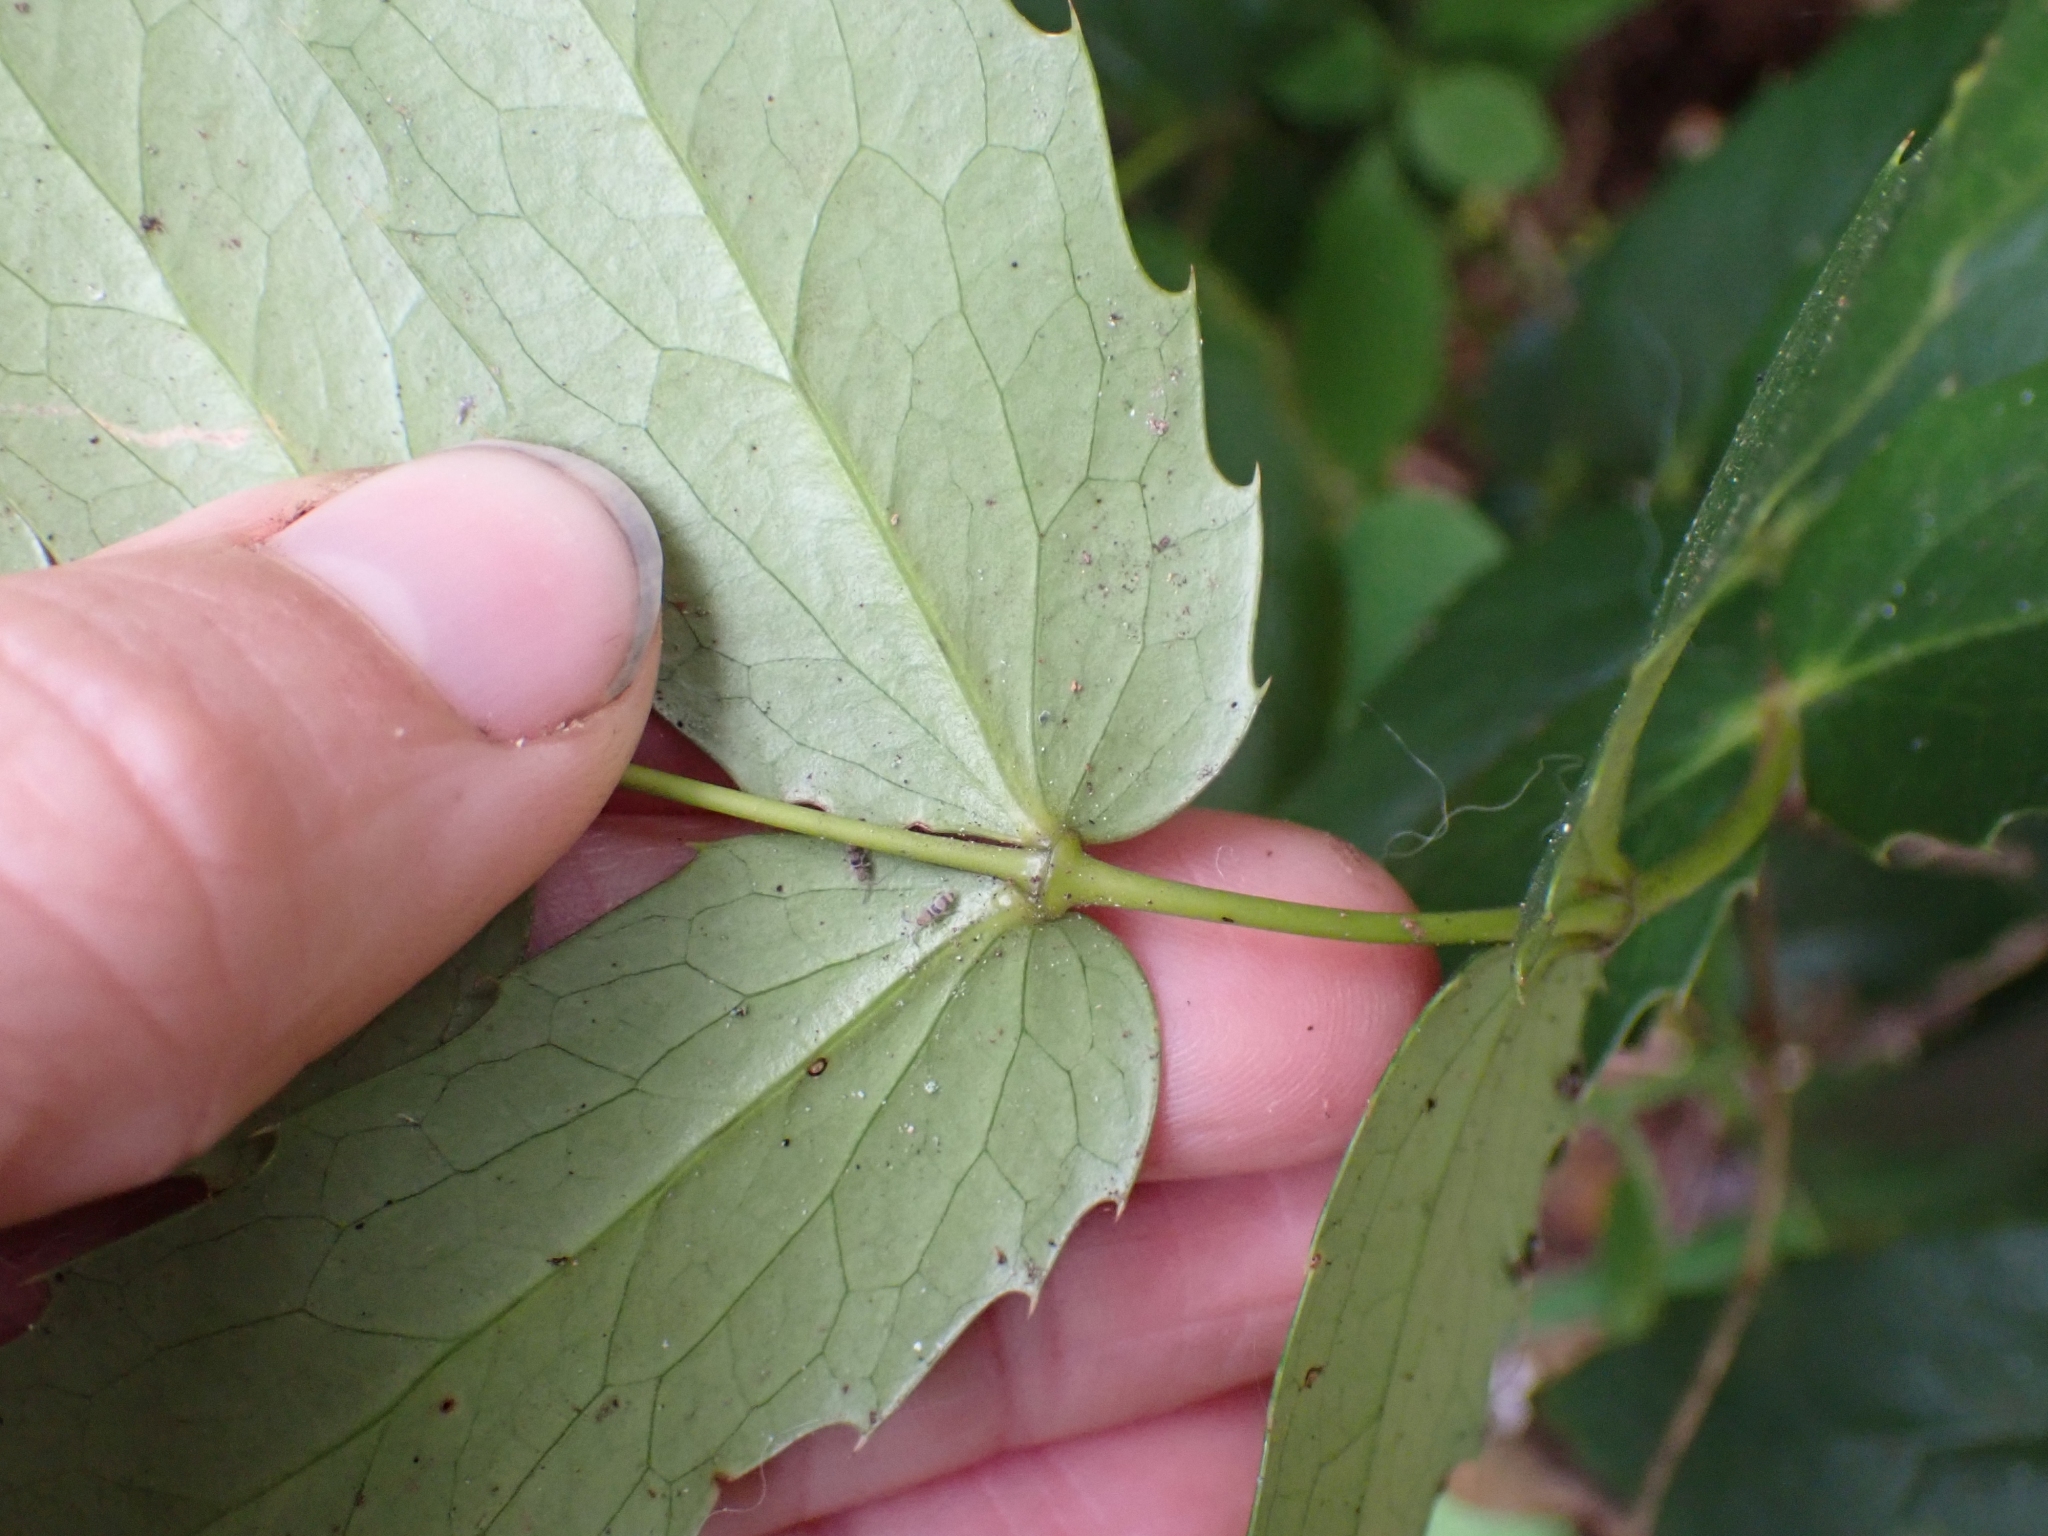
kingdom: Plantae
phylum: Tracheophyta
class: Magnoliopsida
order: Ranunculales
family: Berberidaceae
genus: Mahonia
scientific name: Mahonia nervosa
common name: Cascade oregon-grape
